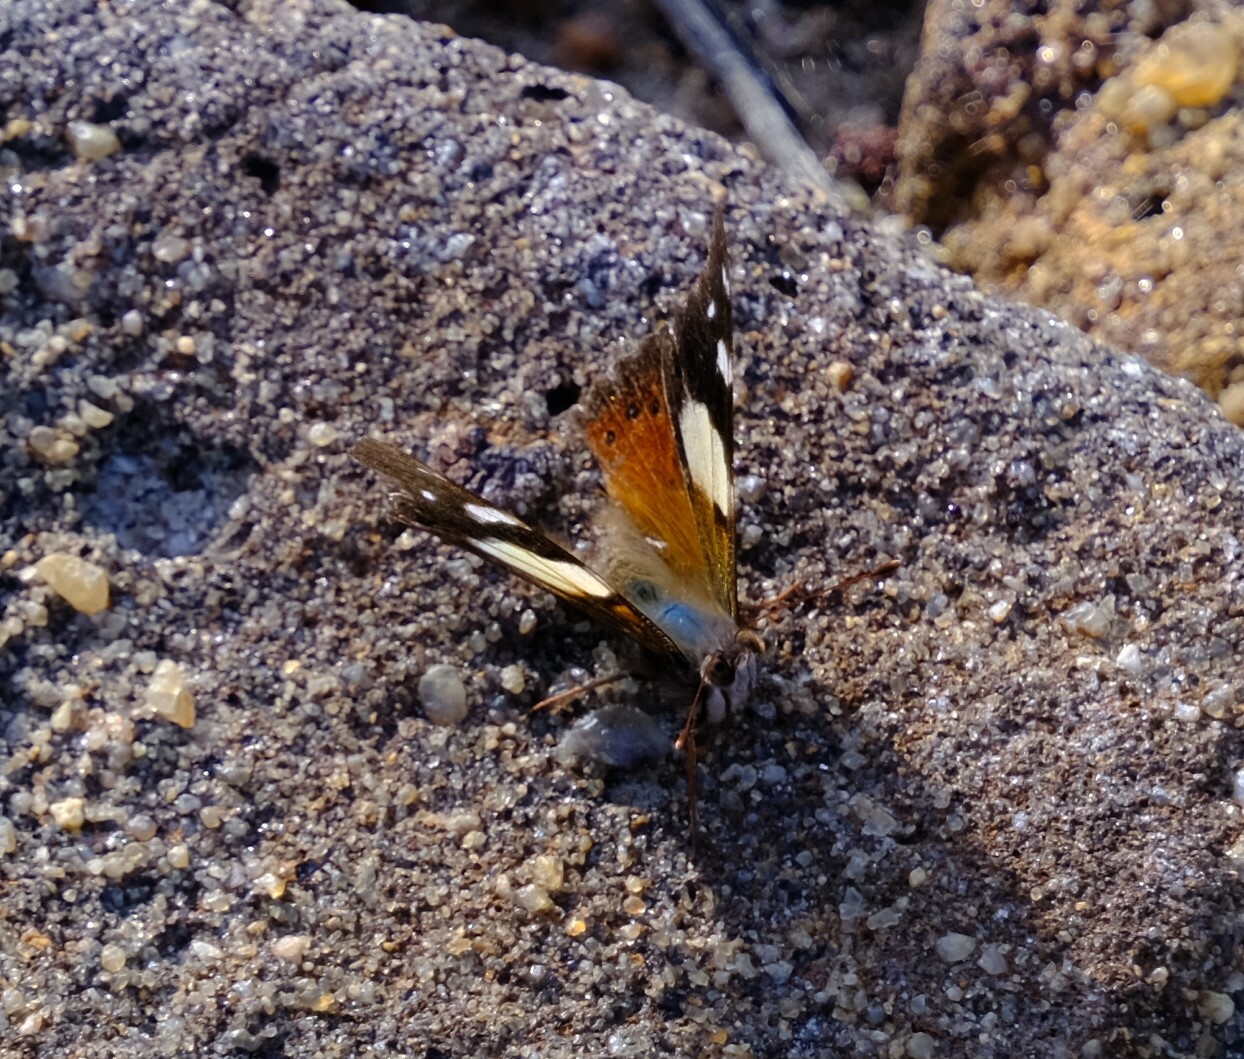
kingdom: Animalia
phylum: Arthropoda
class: Insecta
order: Lepidoptera
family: Nymphalidae
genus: Vanessa
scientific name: Vanessa itea
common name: Yellow admiral
